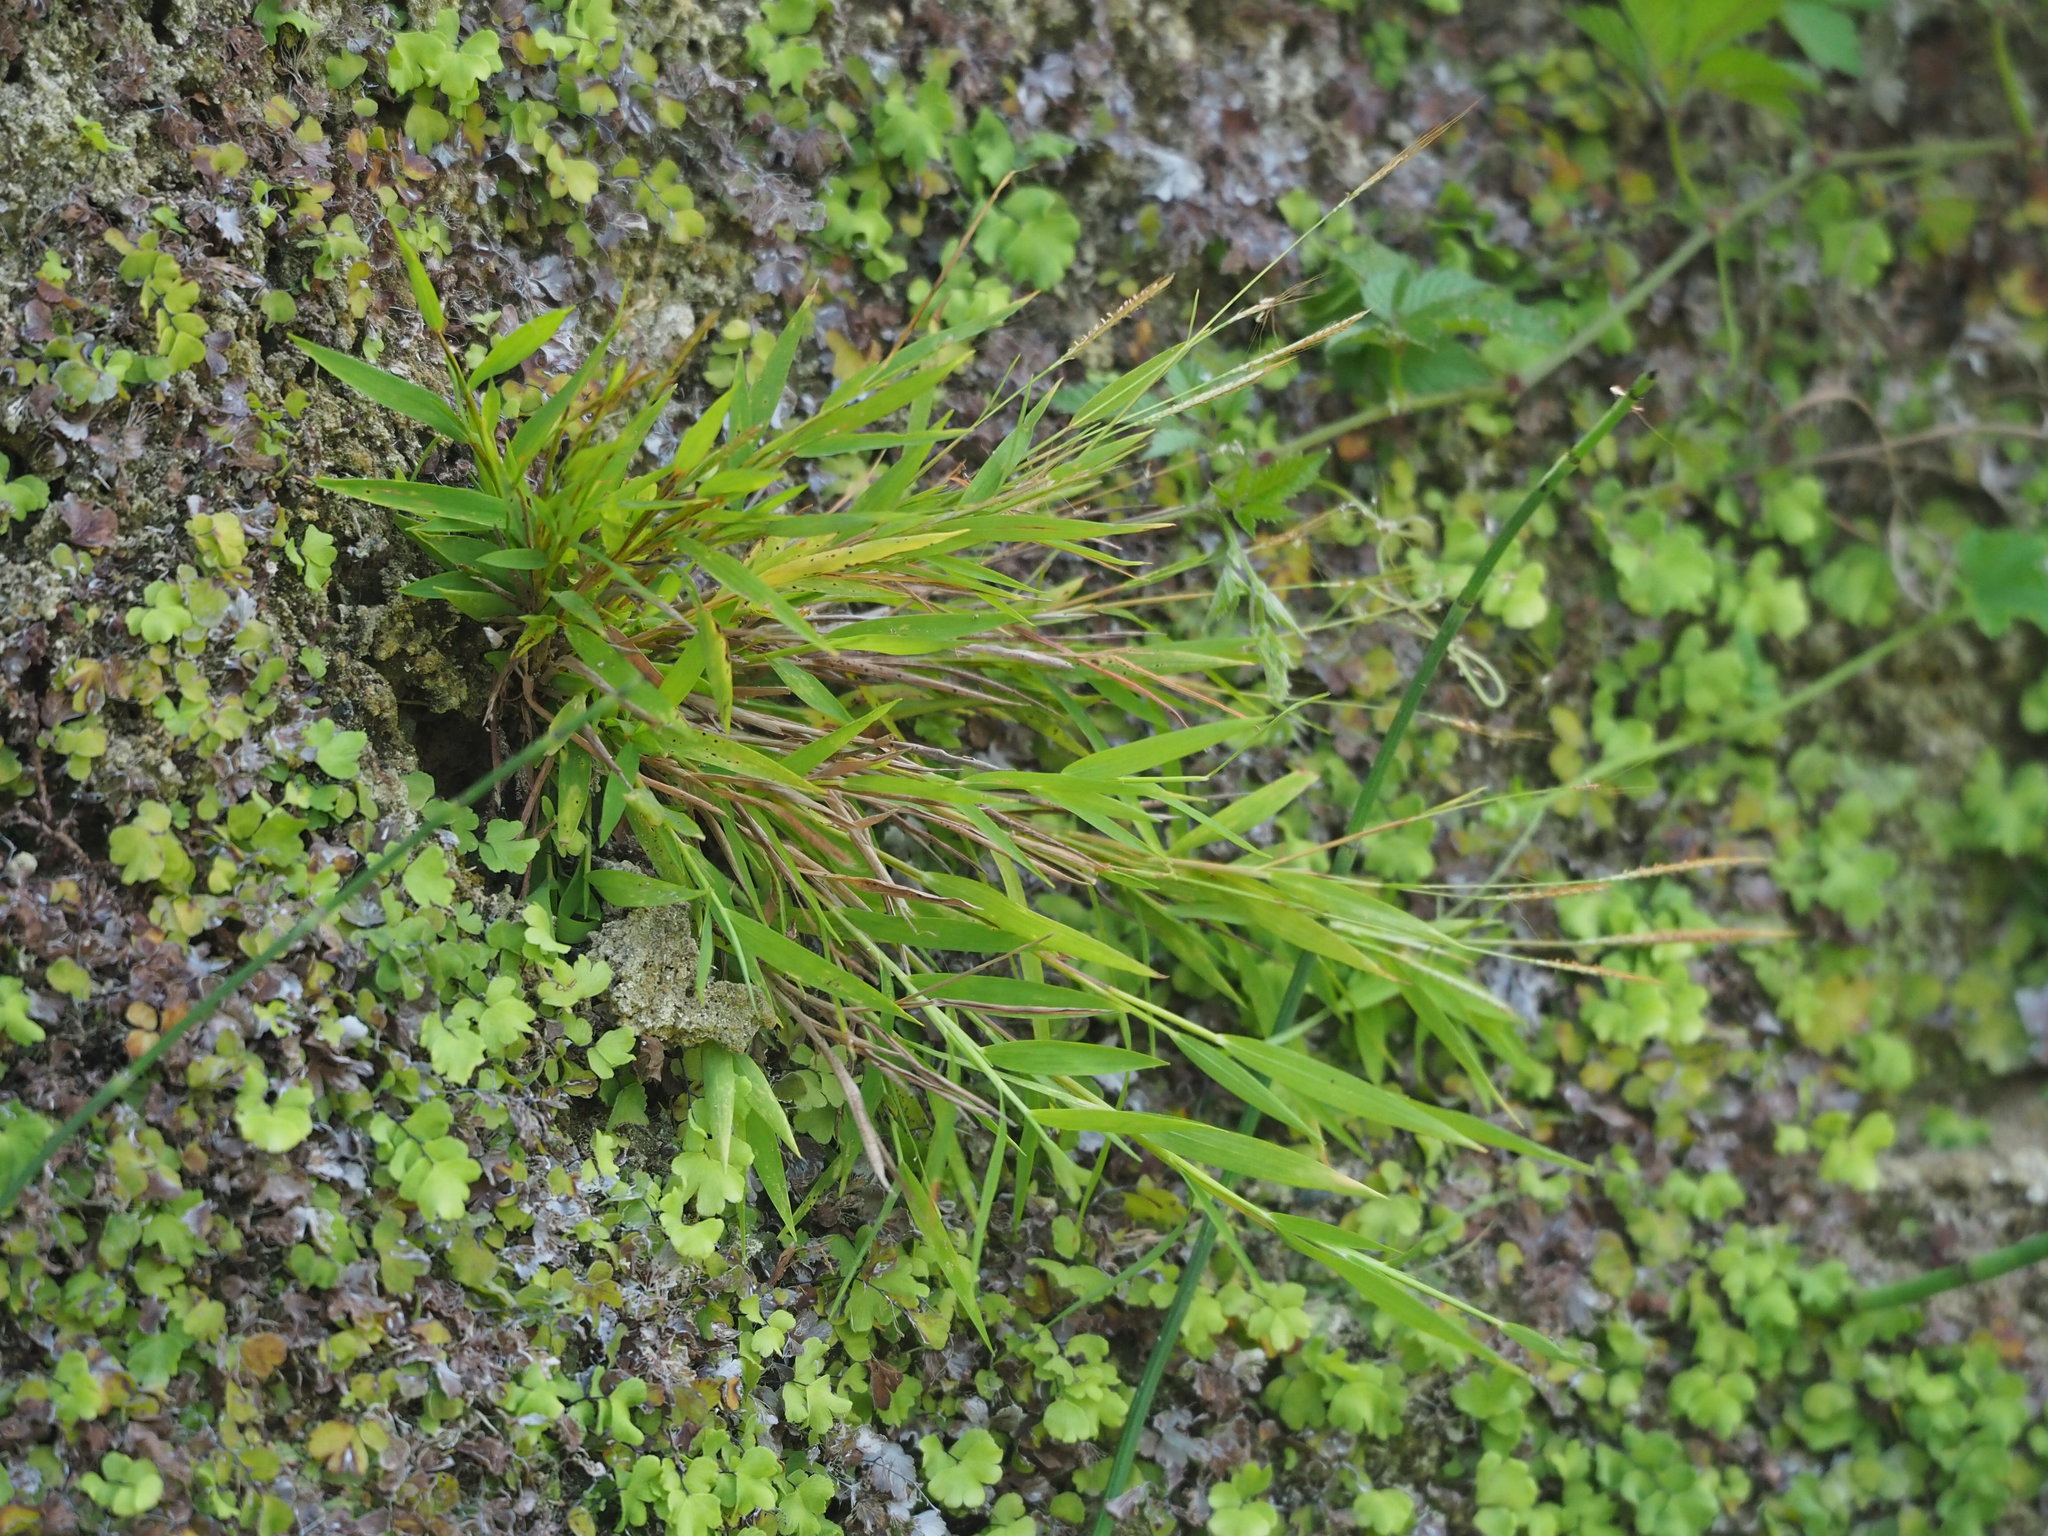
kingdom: Plantae
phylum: Tracheophyta
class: Liliopsida
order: Poales
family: Poaceae
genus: Pogonatherum
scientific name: Pogonatherum crinitum
